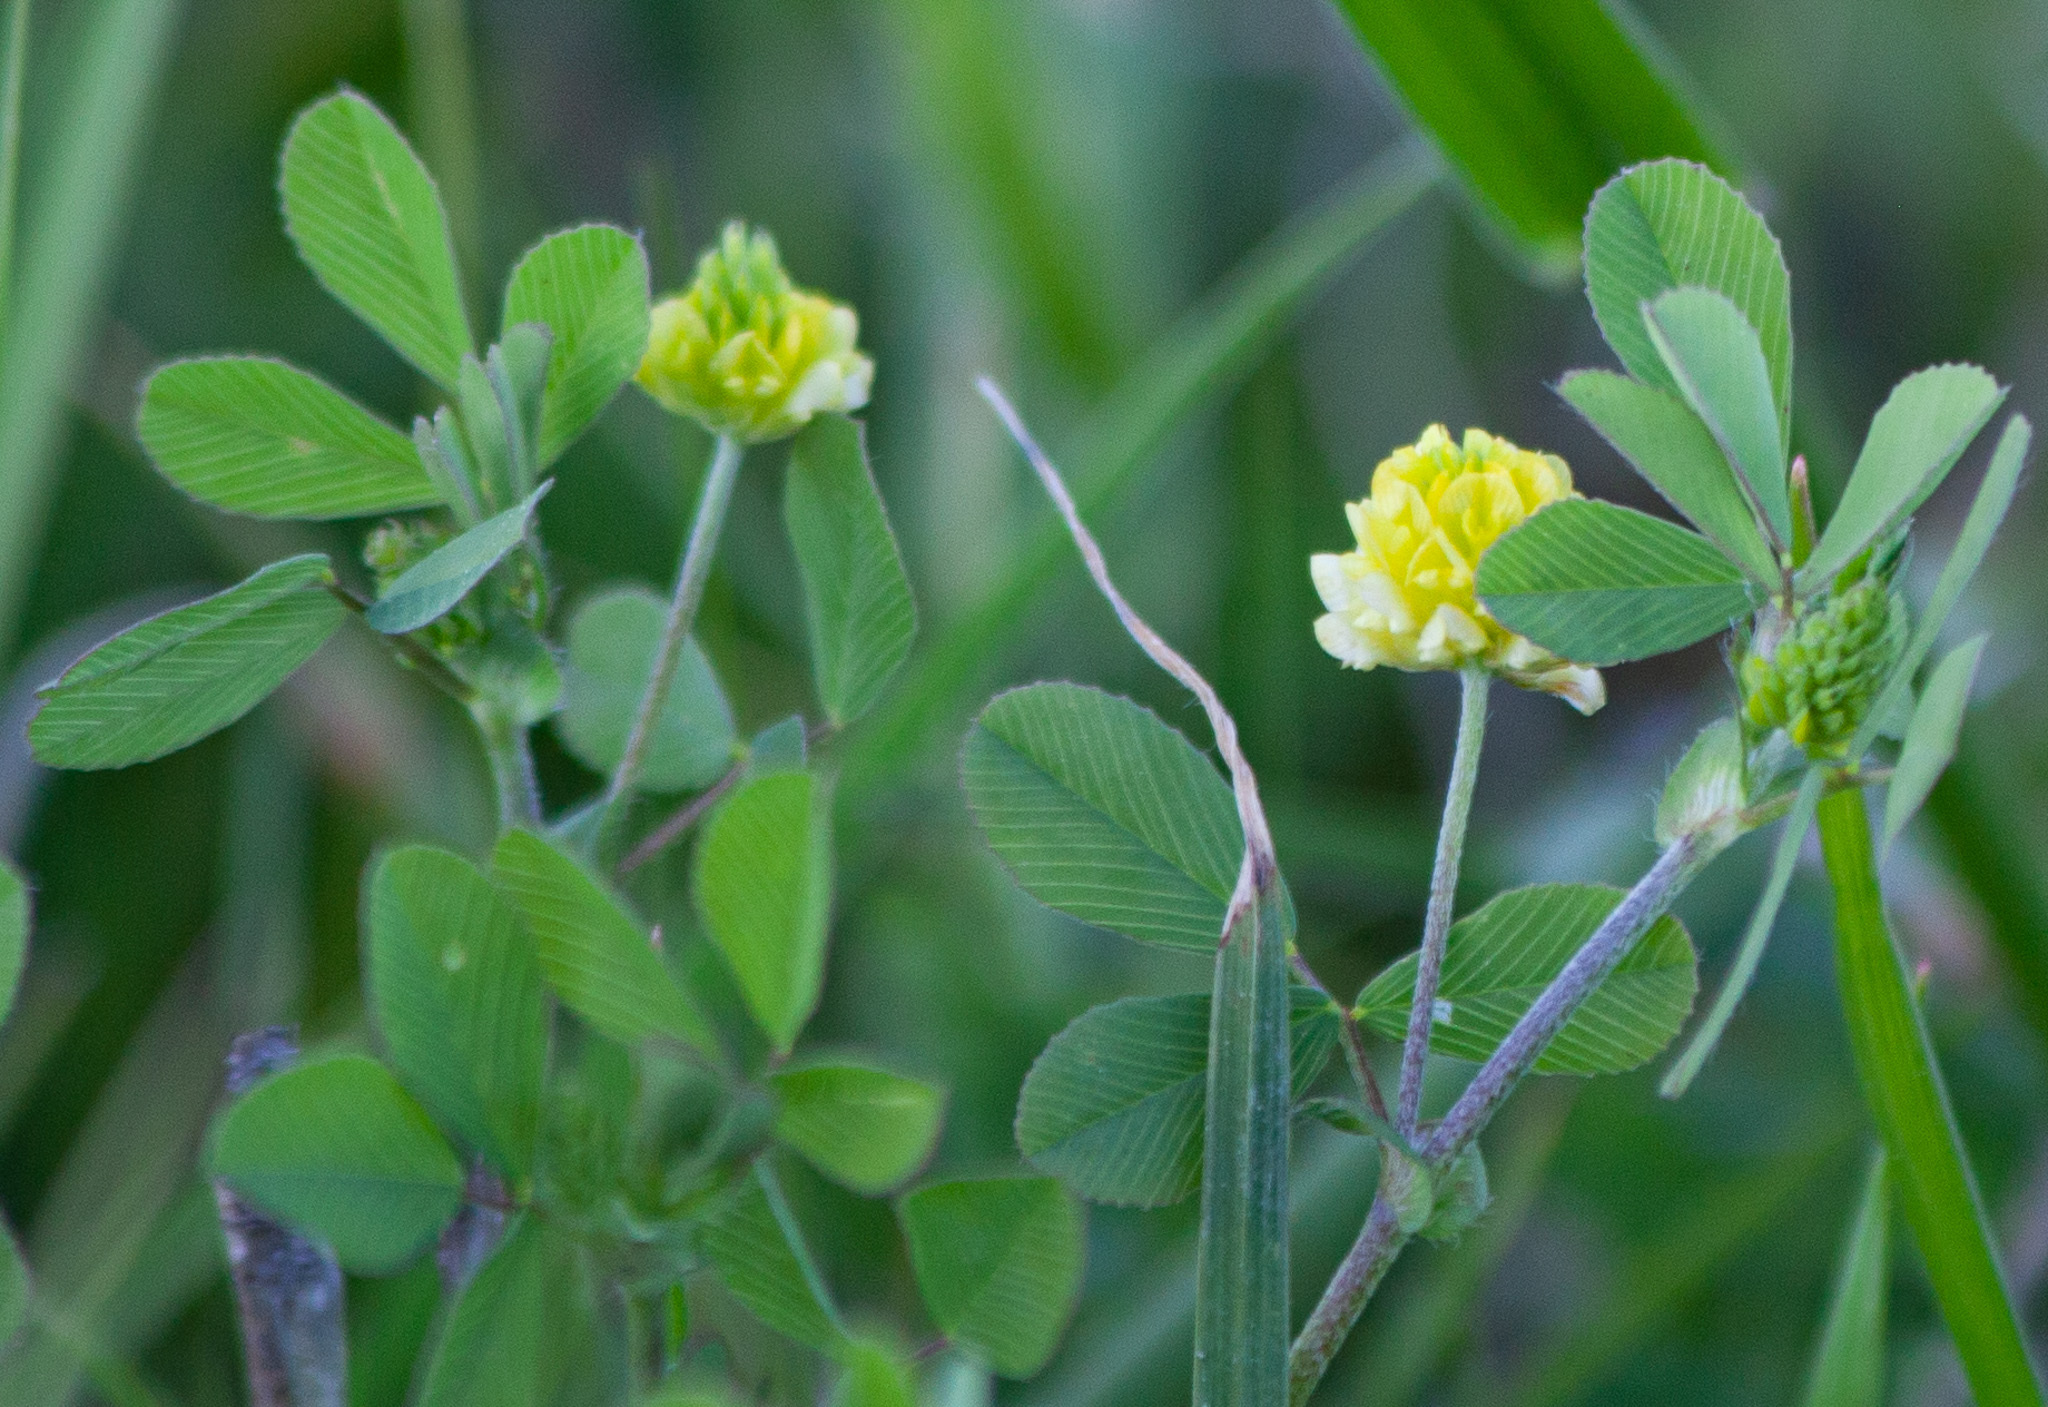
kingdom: Plantae
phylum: Tracheophyta
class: Magnoliopsida
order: Fabales
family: Fabaceae
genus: Trifolium
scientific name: Trifolium campestre
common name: Field clover
